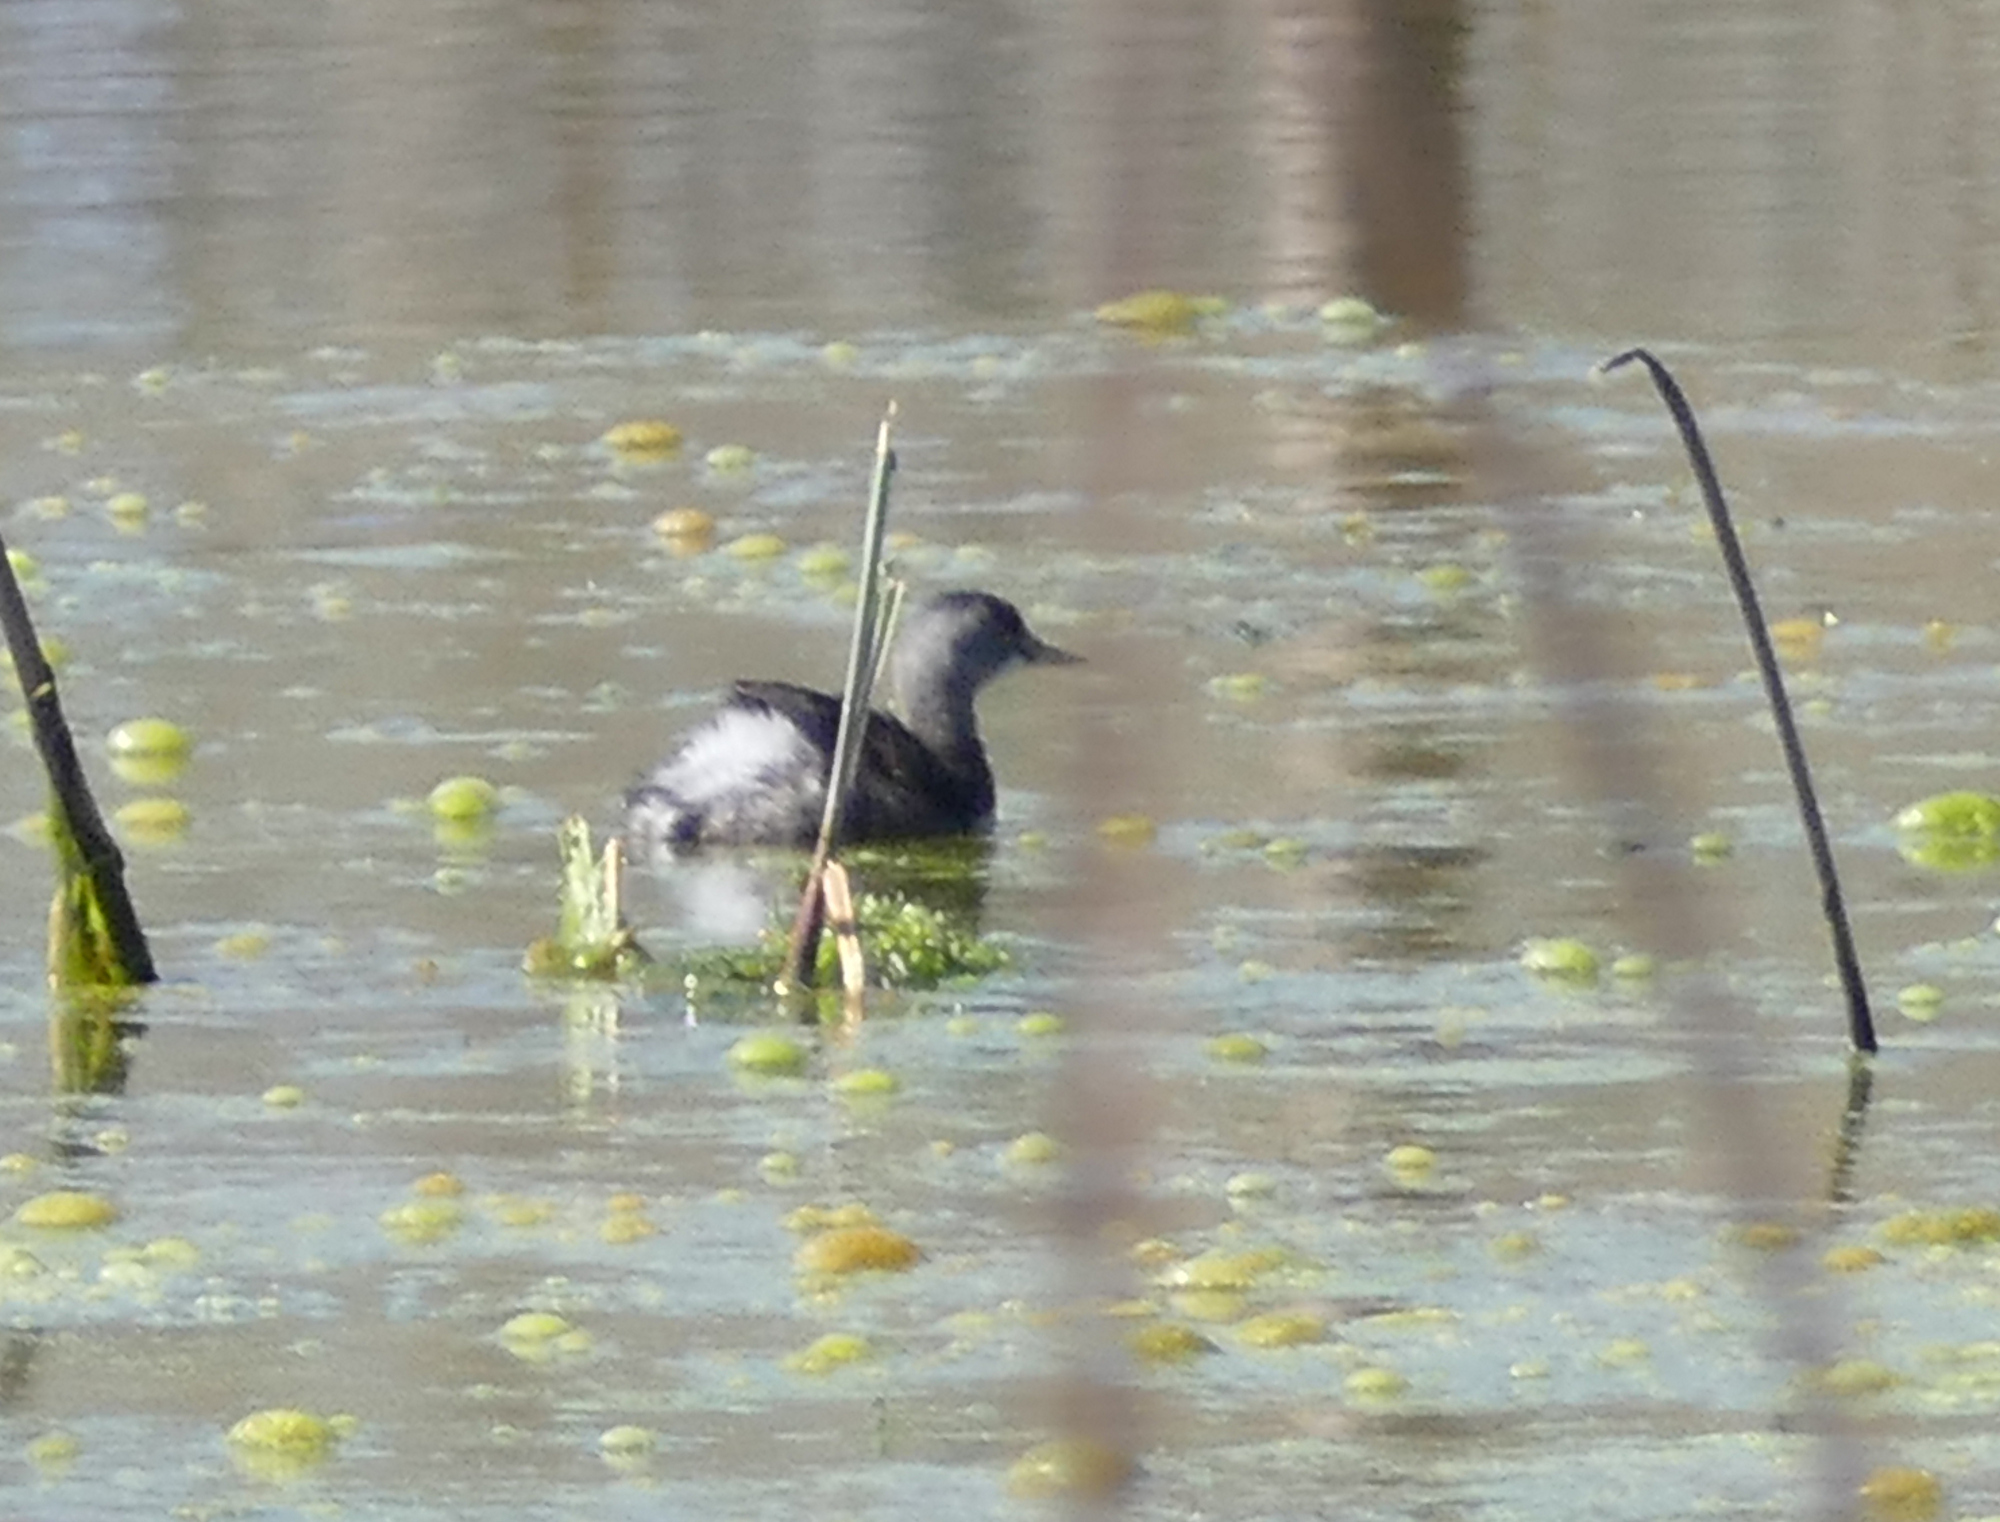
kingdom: Animalia
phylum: Chordata
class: Aves
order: Podicipediformes
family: Podicipedidae
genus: Tachybaptus
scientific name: Tachybaptus dominicus
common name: Least grebe
